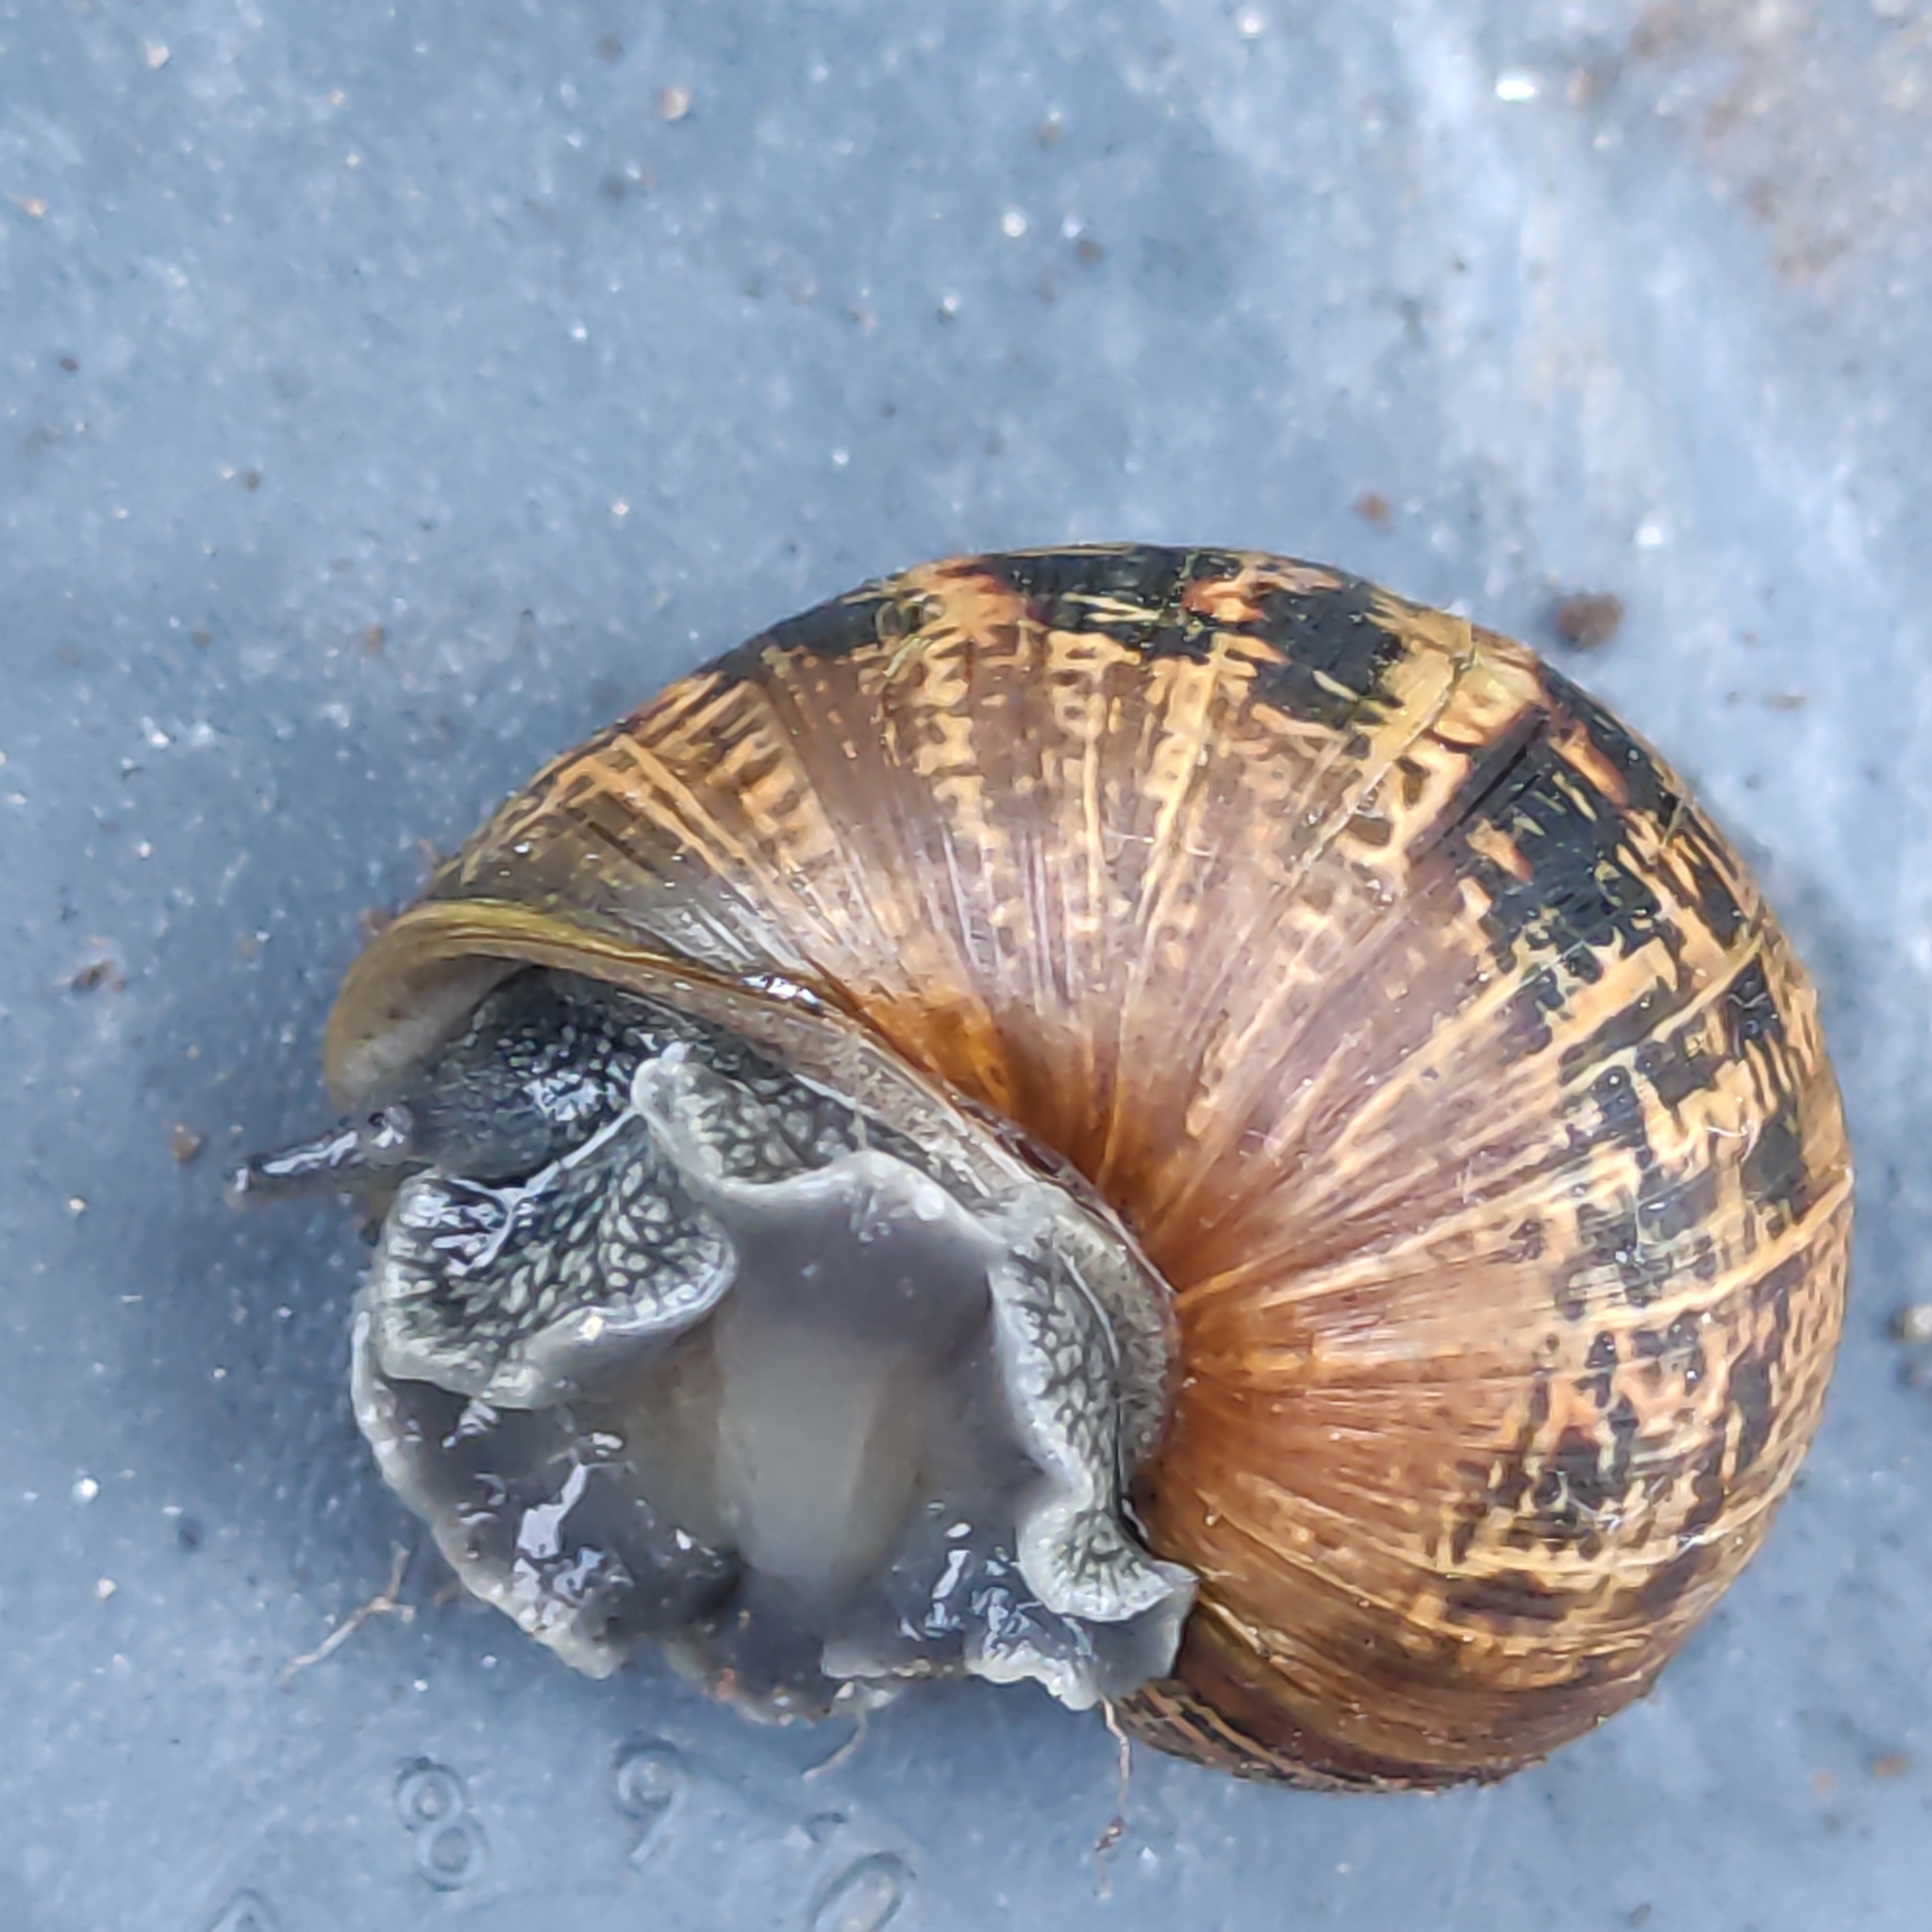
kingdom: Animalia
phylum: Mollusca
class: Gastropoda
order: Stylommatophora
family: Helicidae
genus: Cornu
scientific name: Cornu aspersum
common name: Brown garden snail
